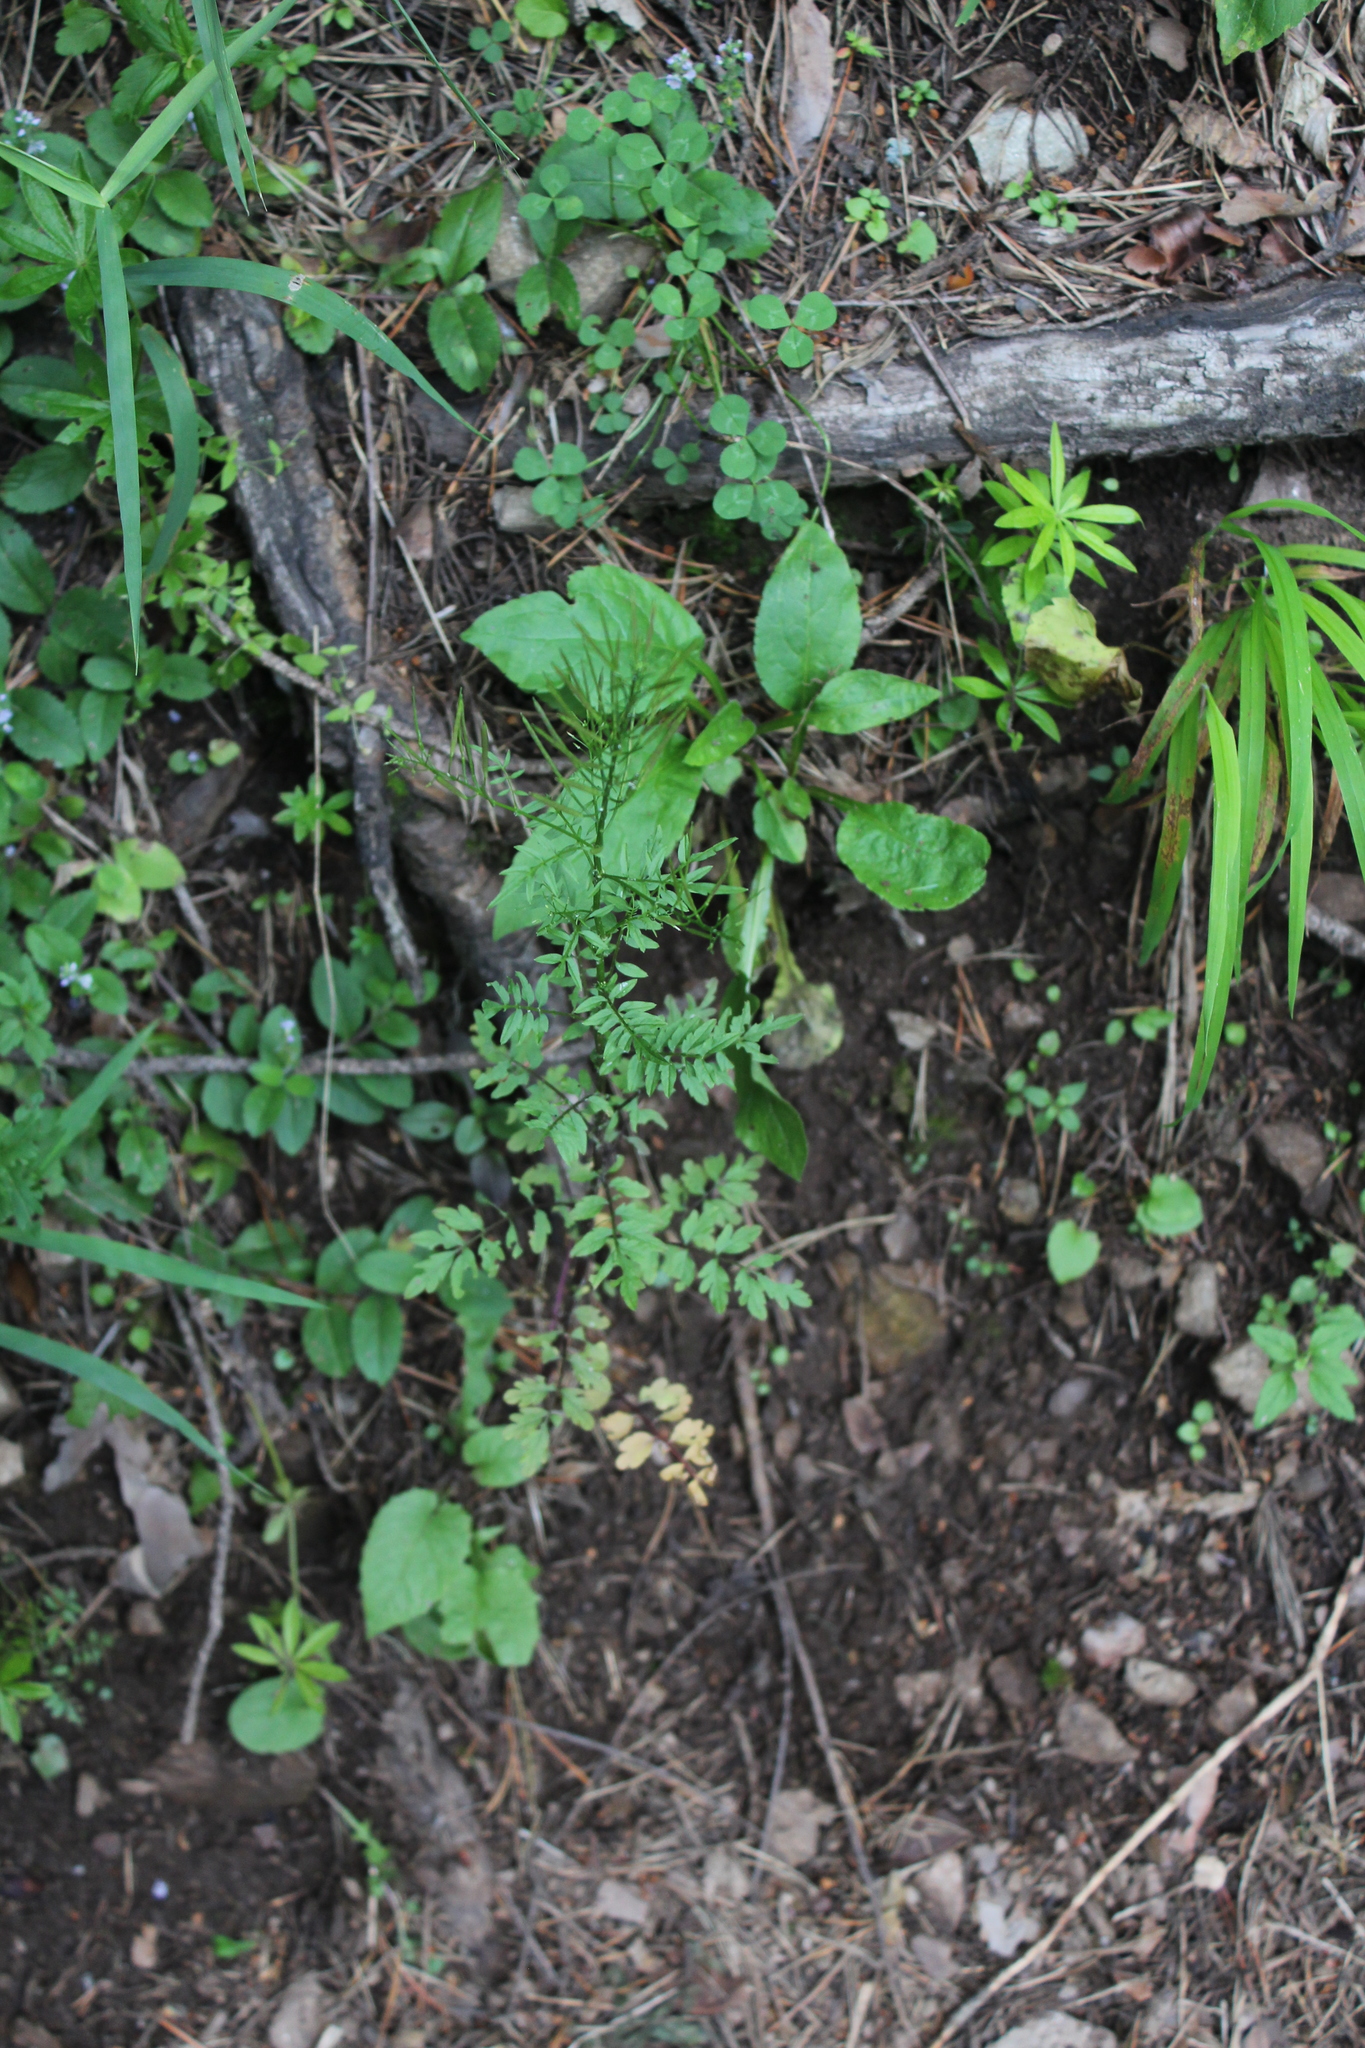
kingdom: Plantae
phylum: Tracheophyta
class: Magnoliopsida
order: Brassicales
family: Brassicaceae
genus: Cardamine
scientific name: Cardamine impatiens
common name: Narrow-leaved bitter-cress
